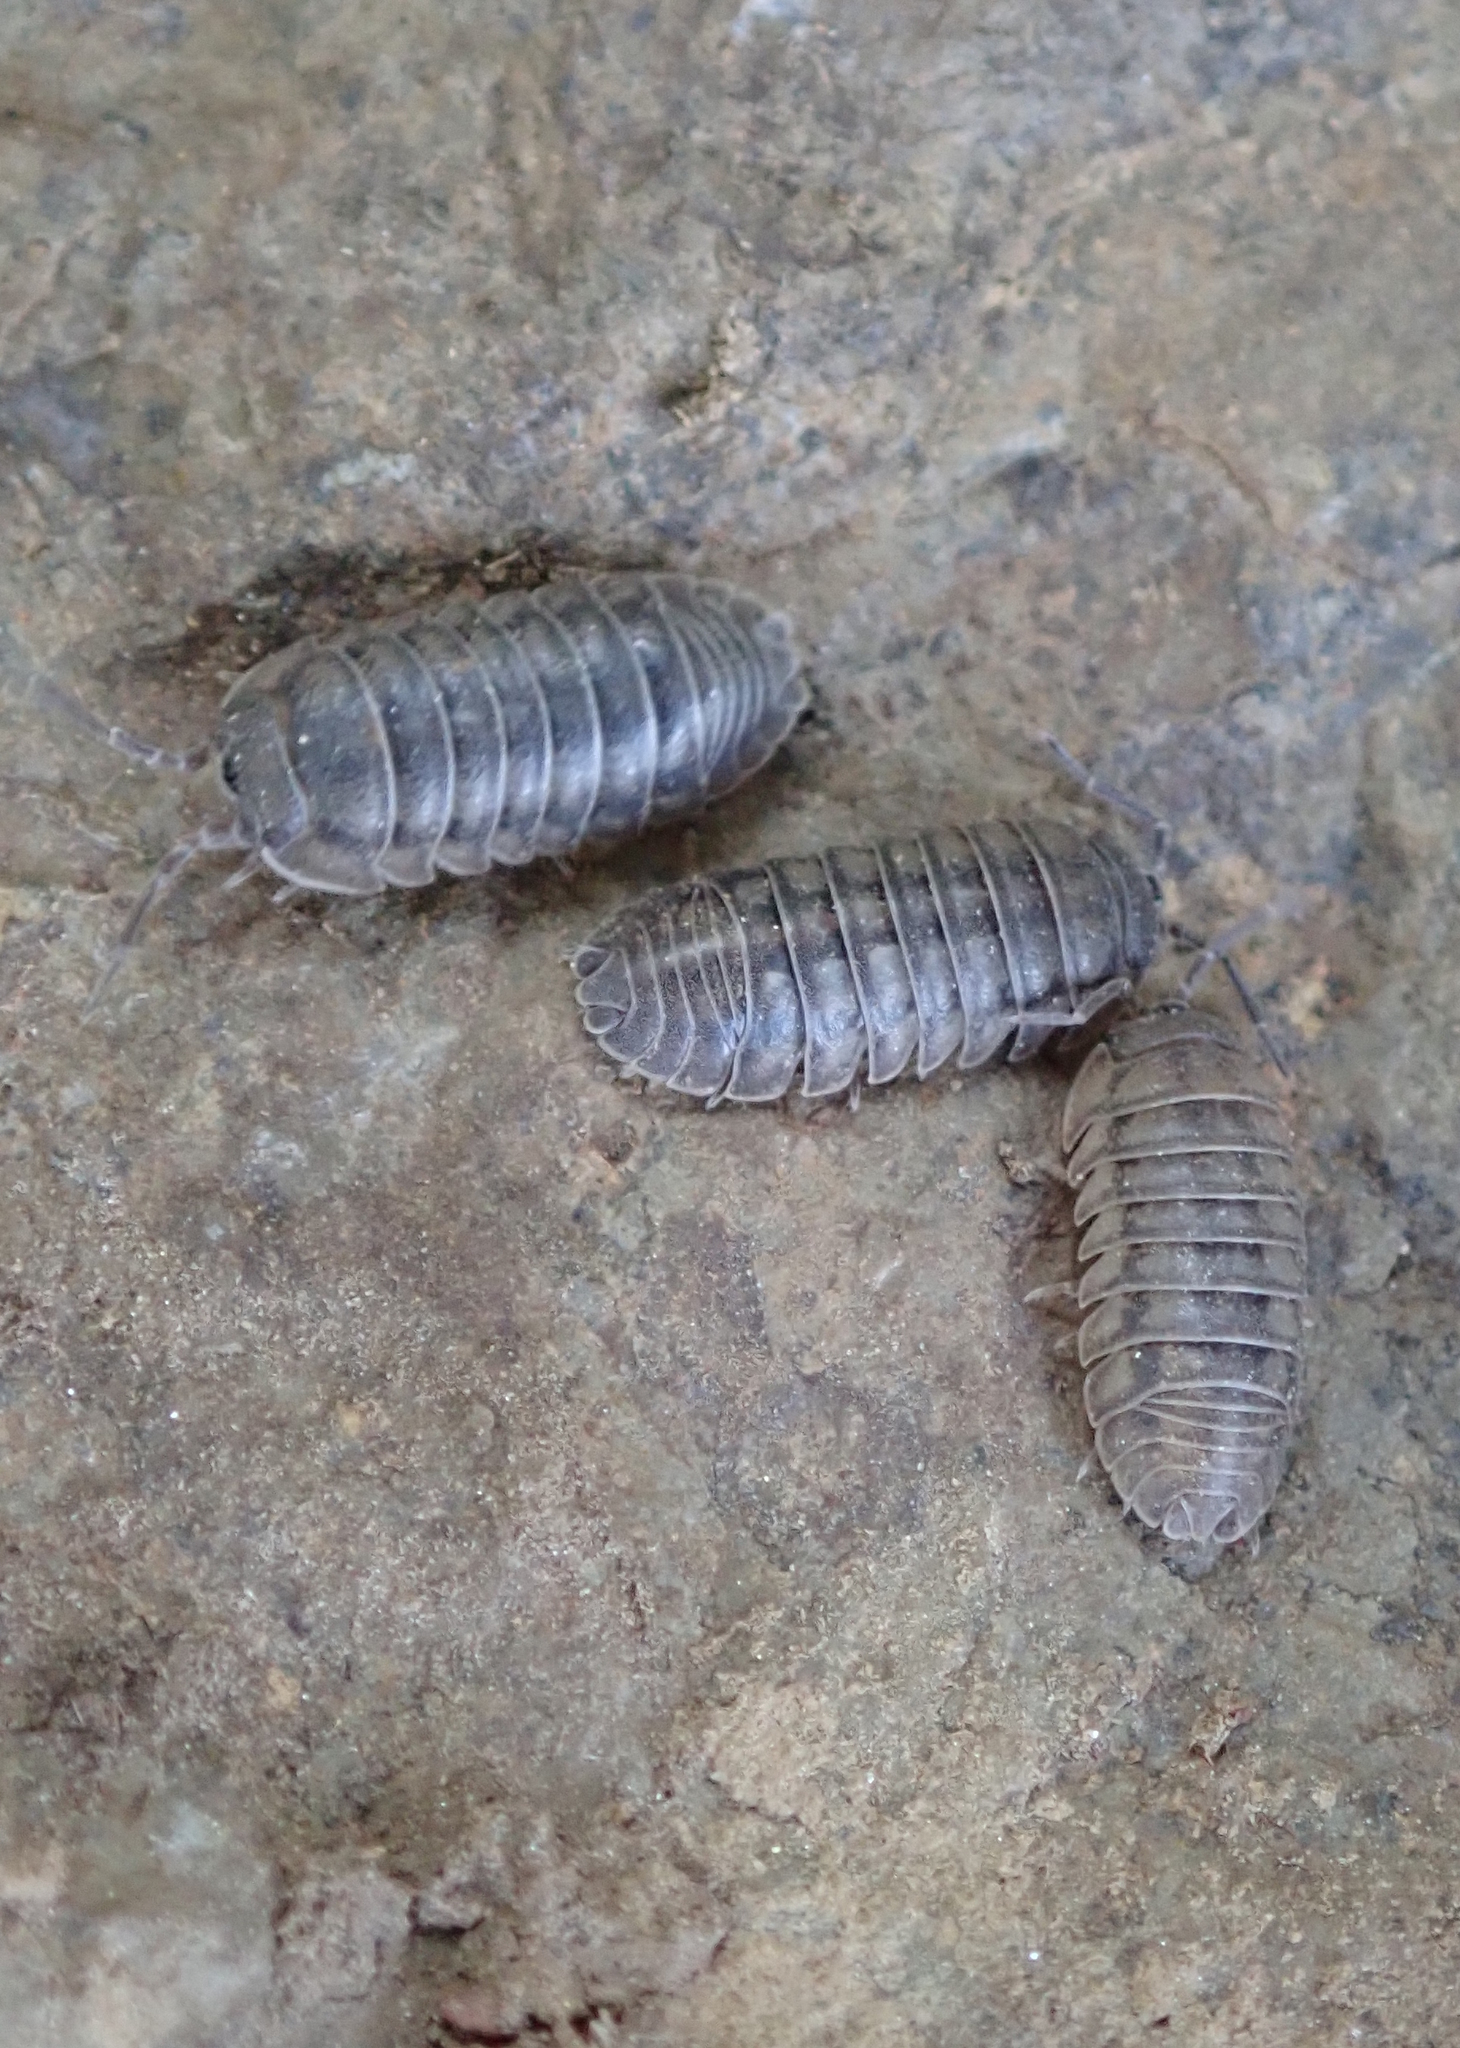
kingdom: Animalia
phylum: Arthropoda
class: Malacostraca
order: Isopoda
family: Armadillidiidae
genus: Armadillidium
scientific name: Armadillidium nasatum
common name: Isopod
